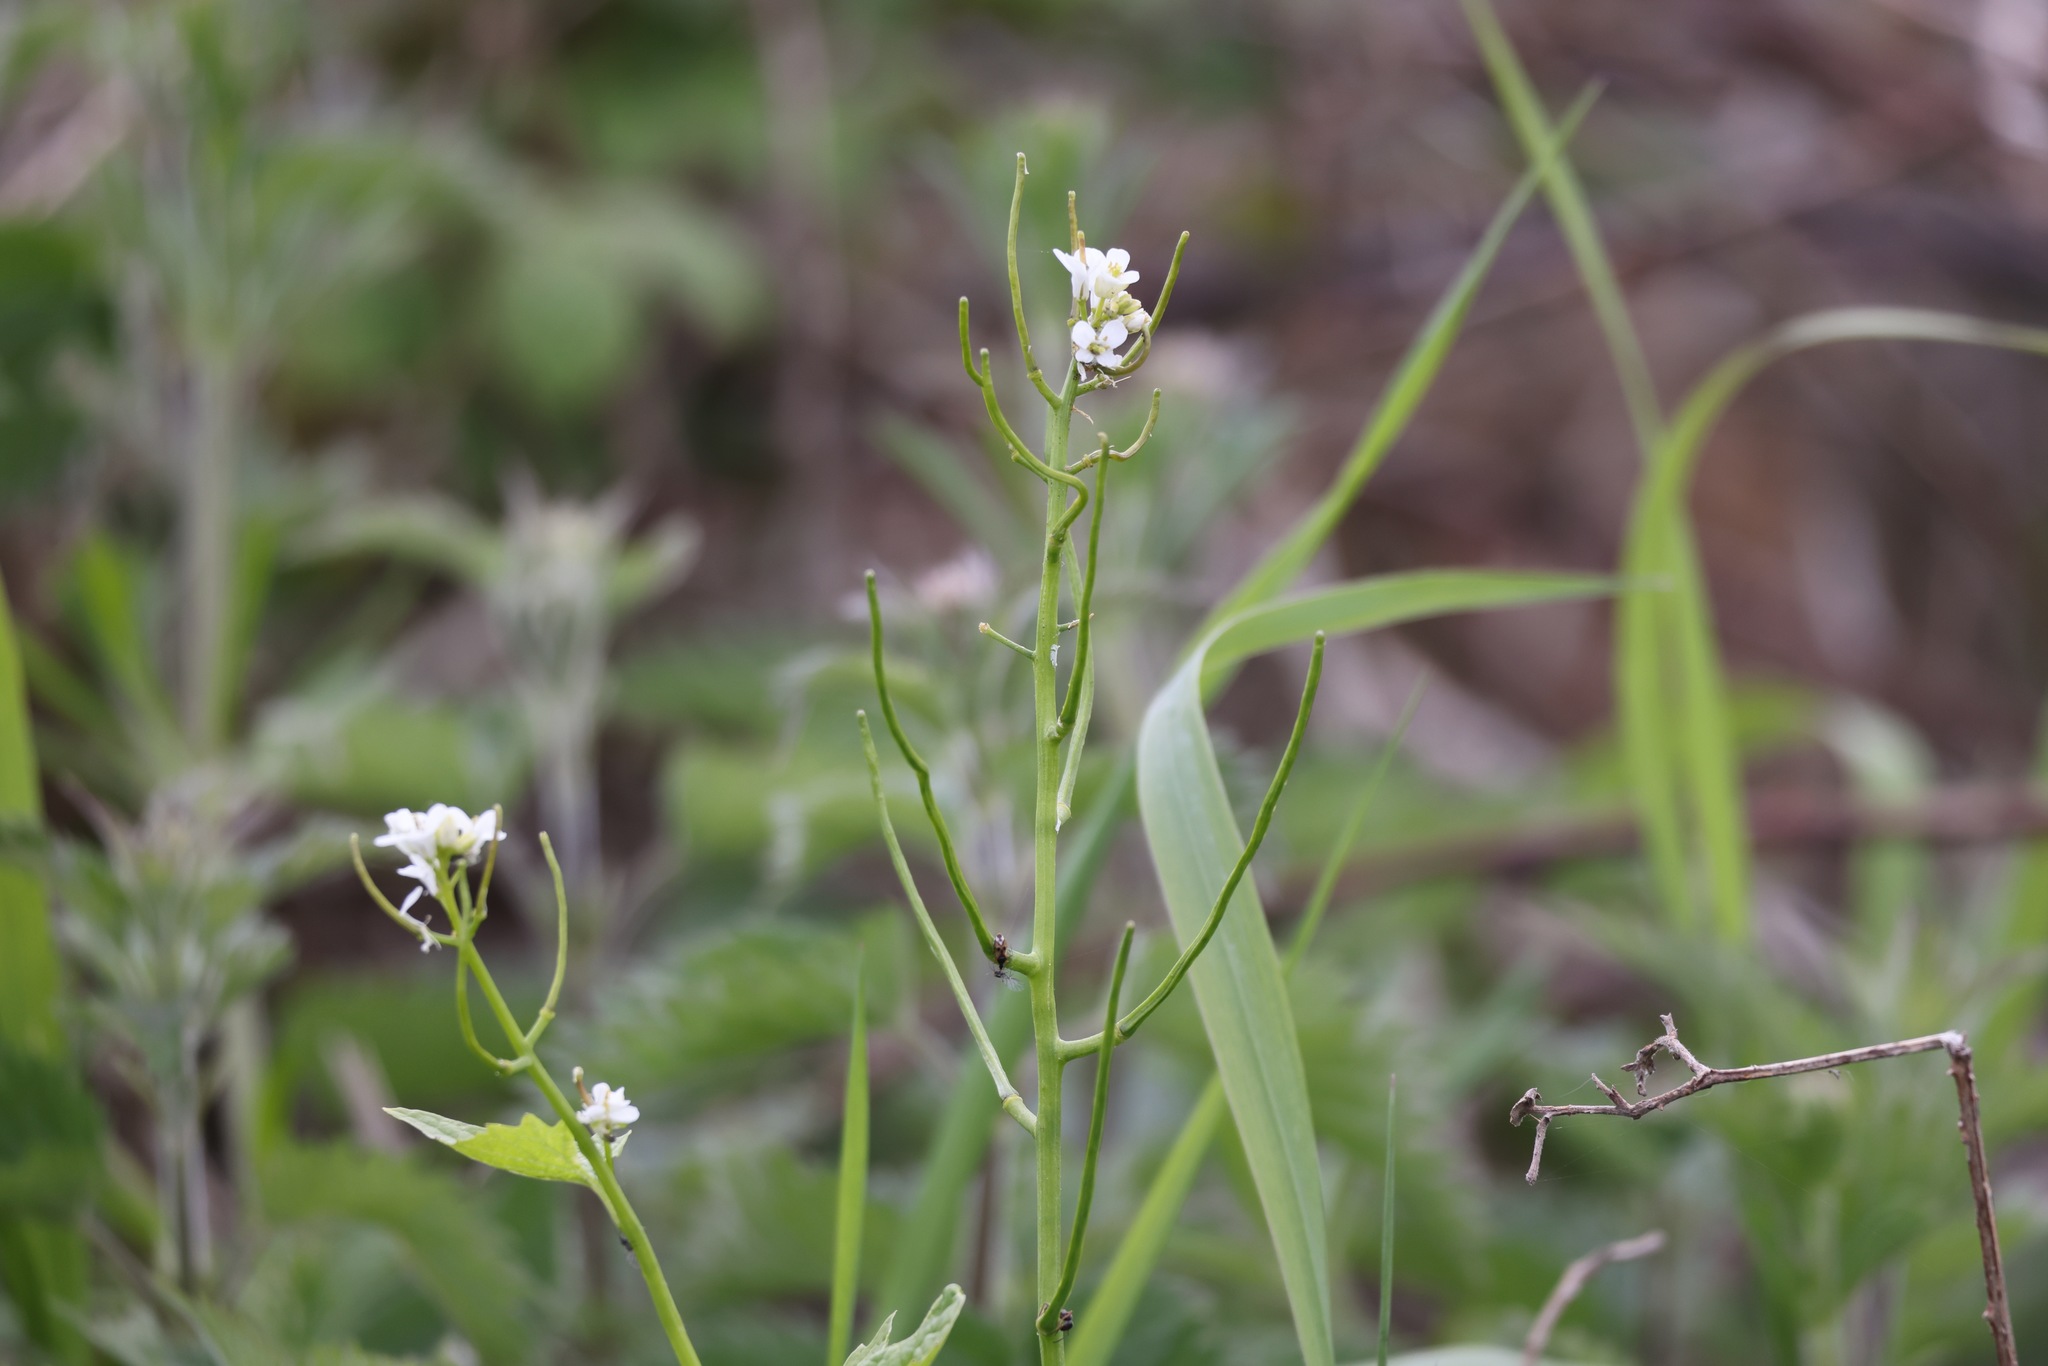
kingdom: Plantae
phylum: Tracheophyta
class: Magnoliopsida
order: Brassicales
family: Brassicaceae
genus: Alliaria
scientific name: Alliaria petiolata
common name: Garlic mustard
